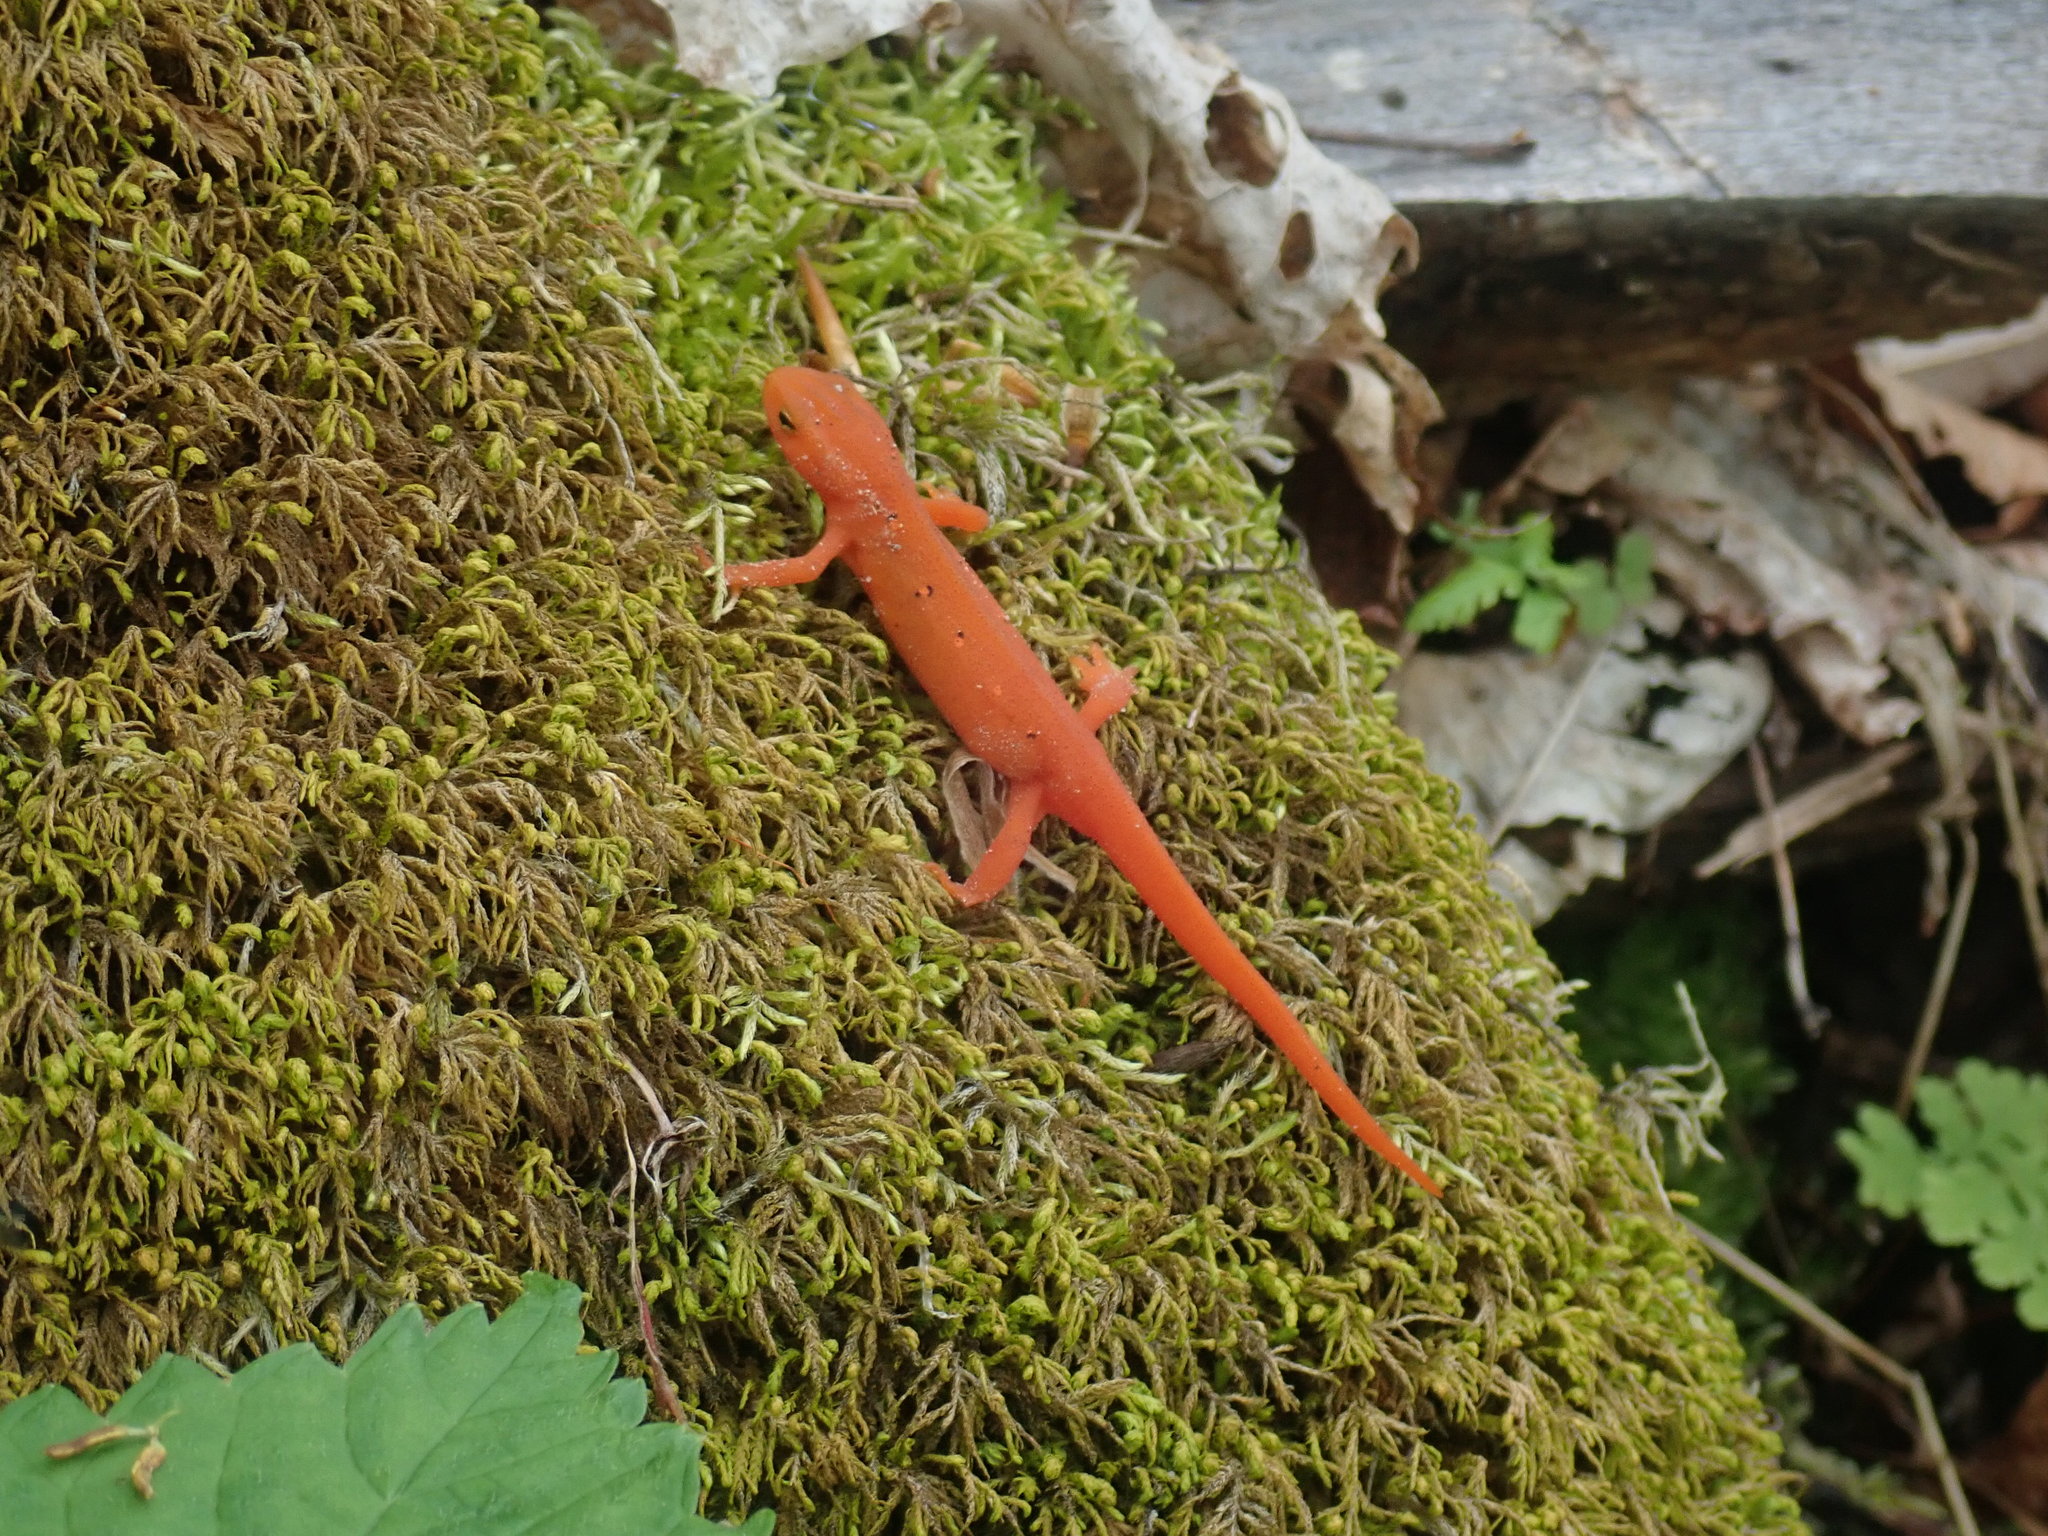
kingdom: Animalia
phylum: Chordata
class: Amphibia
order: Caudata
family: Salamandridae
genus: Notophthalmus
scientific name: Notophthalmus viridescens
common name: Eastern newt
